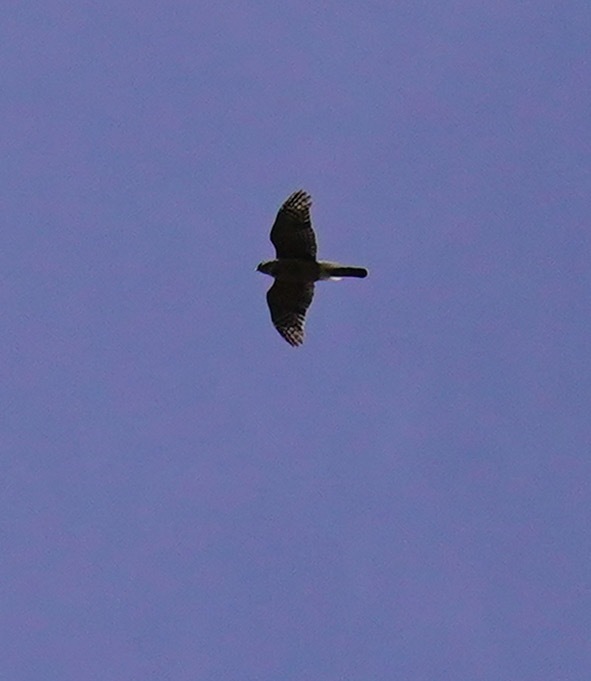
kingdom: Animalia
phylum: Chordata
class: Aves
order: Accipitriformes
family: Accipitridae
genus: Accipiter
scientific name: Accipiter cooperii
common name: Cooper's hawk
